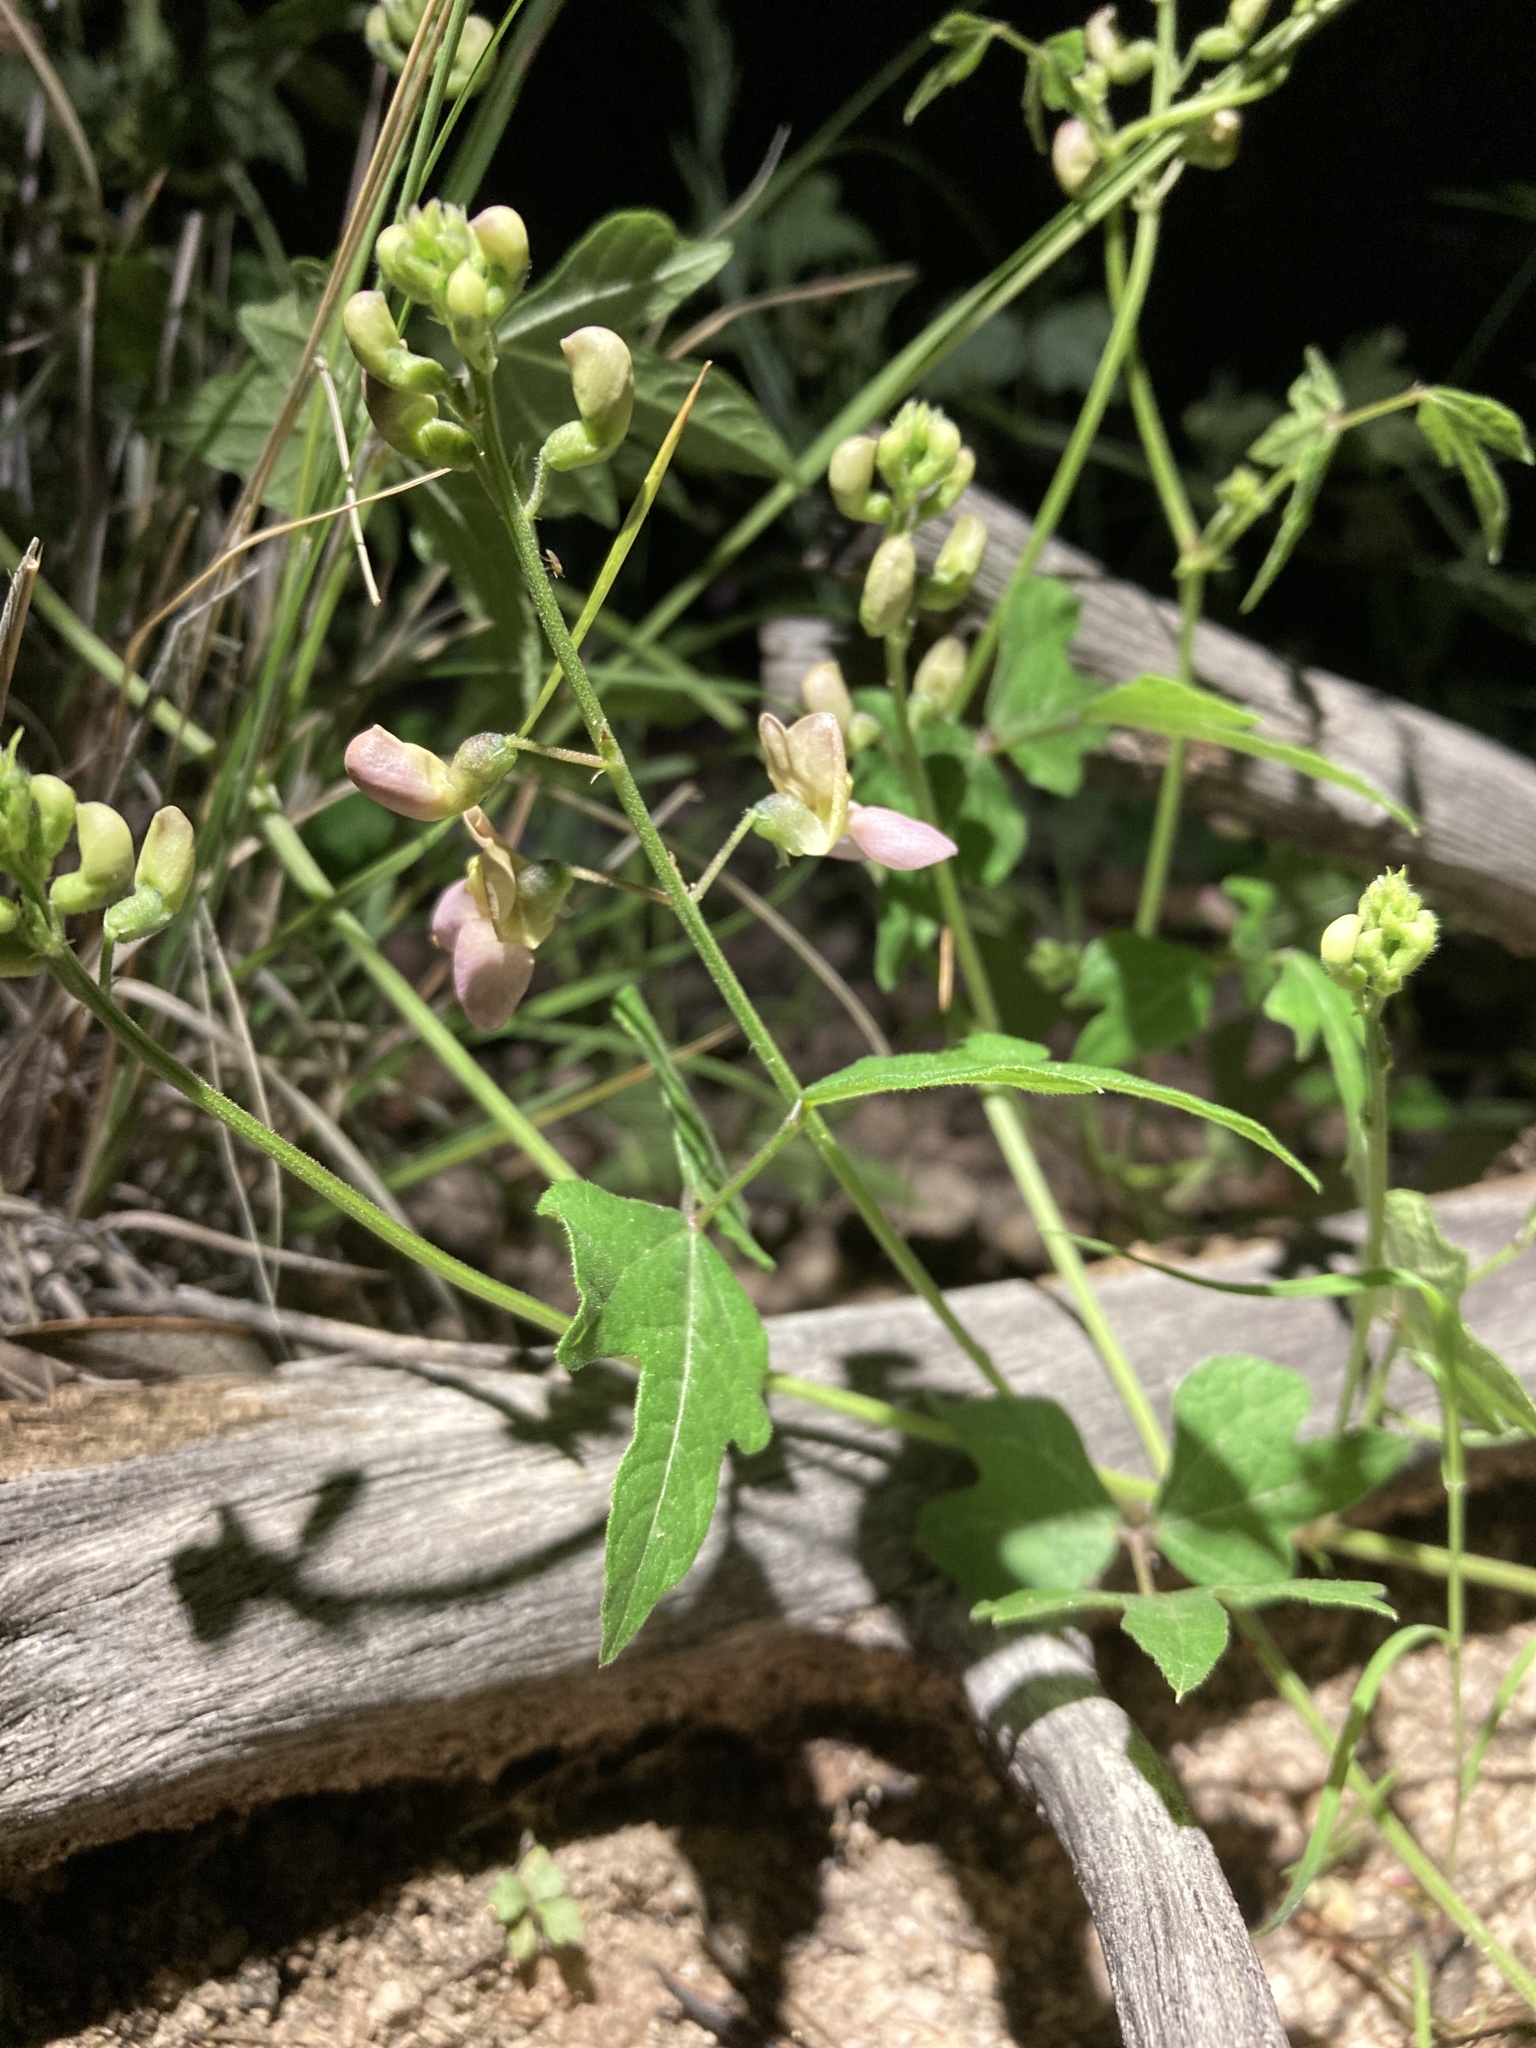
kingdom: Plantae
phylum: Tracheophyta
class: Magnoliopsida
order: Fabales
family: Fabaceae
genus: Phaseolus
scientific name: Phaseolus pedicellatus
